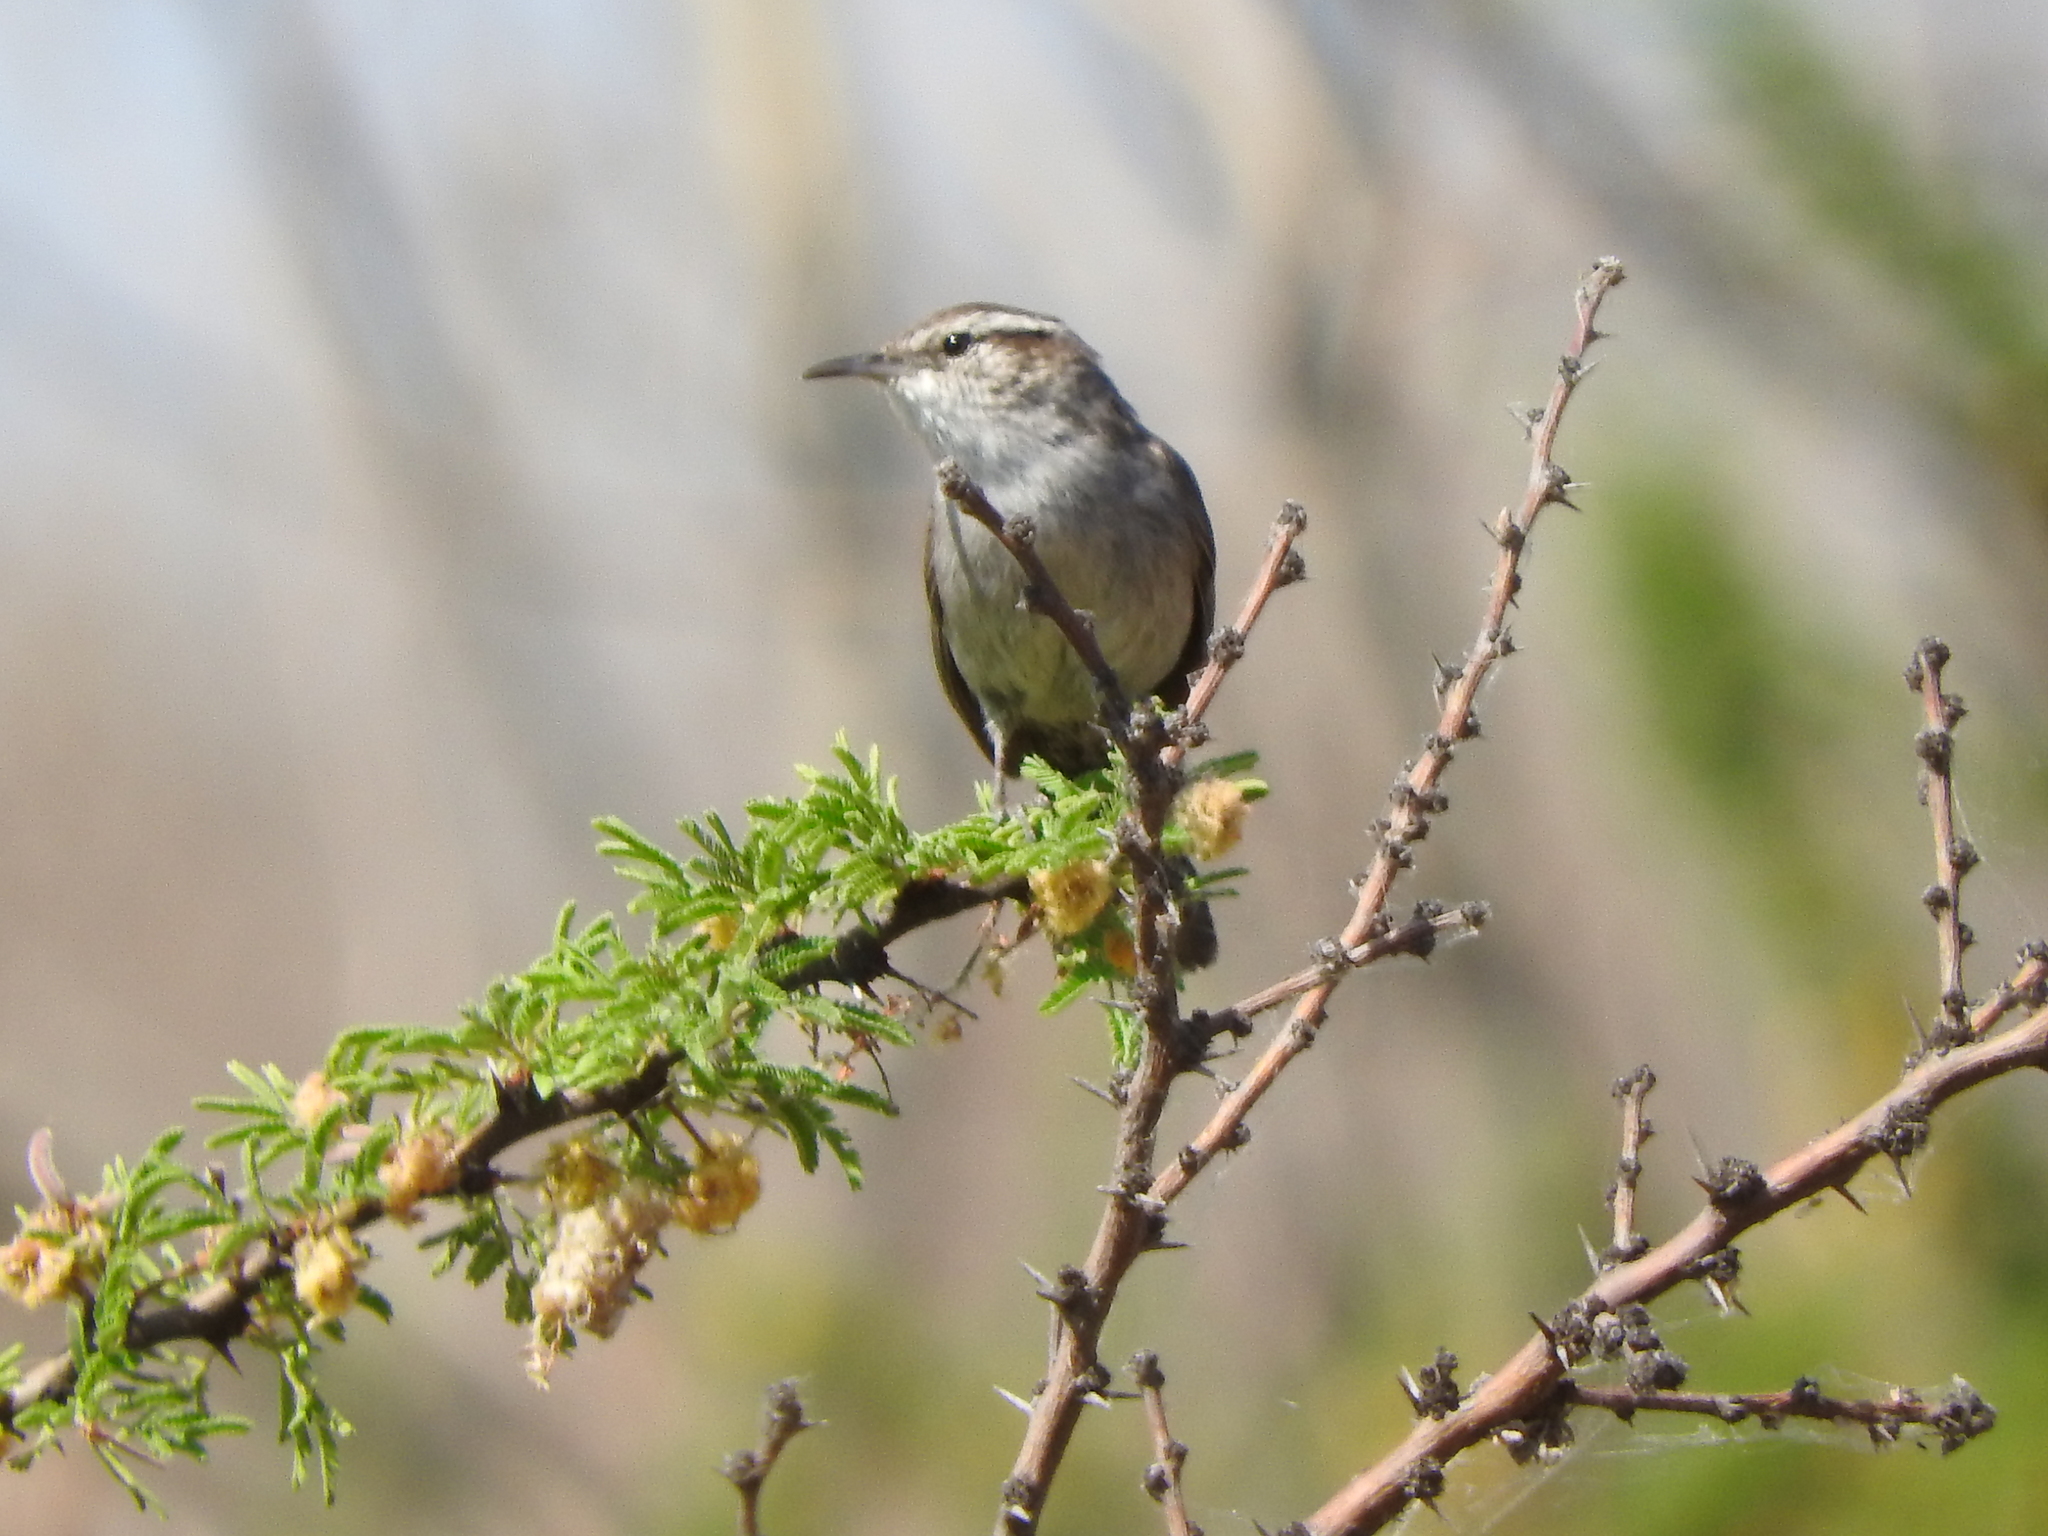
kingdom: Animalia
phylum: Chordata
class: Aves
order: Passeriformes
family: Troglodytidae
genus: Thryomanes
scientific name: Thryomanes bewickii
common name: Bewick's wren
